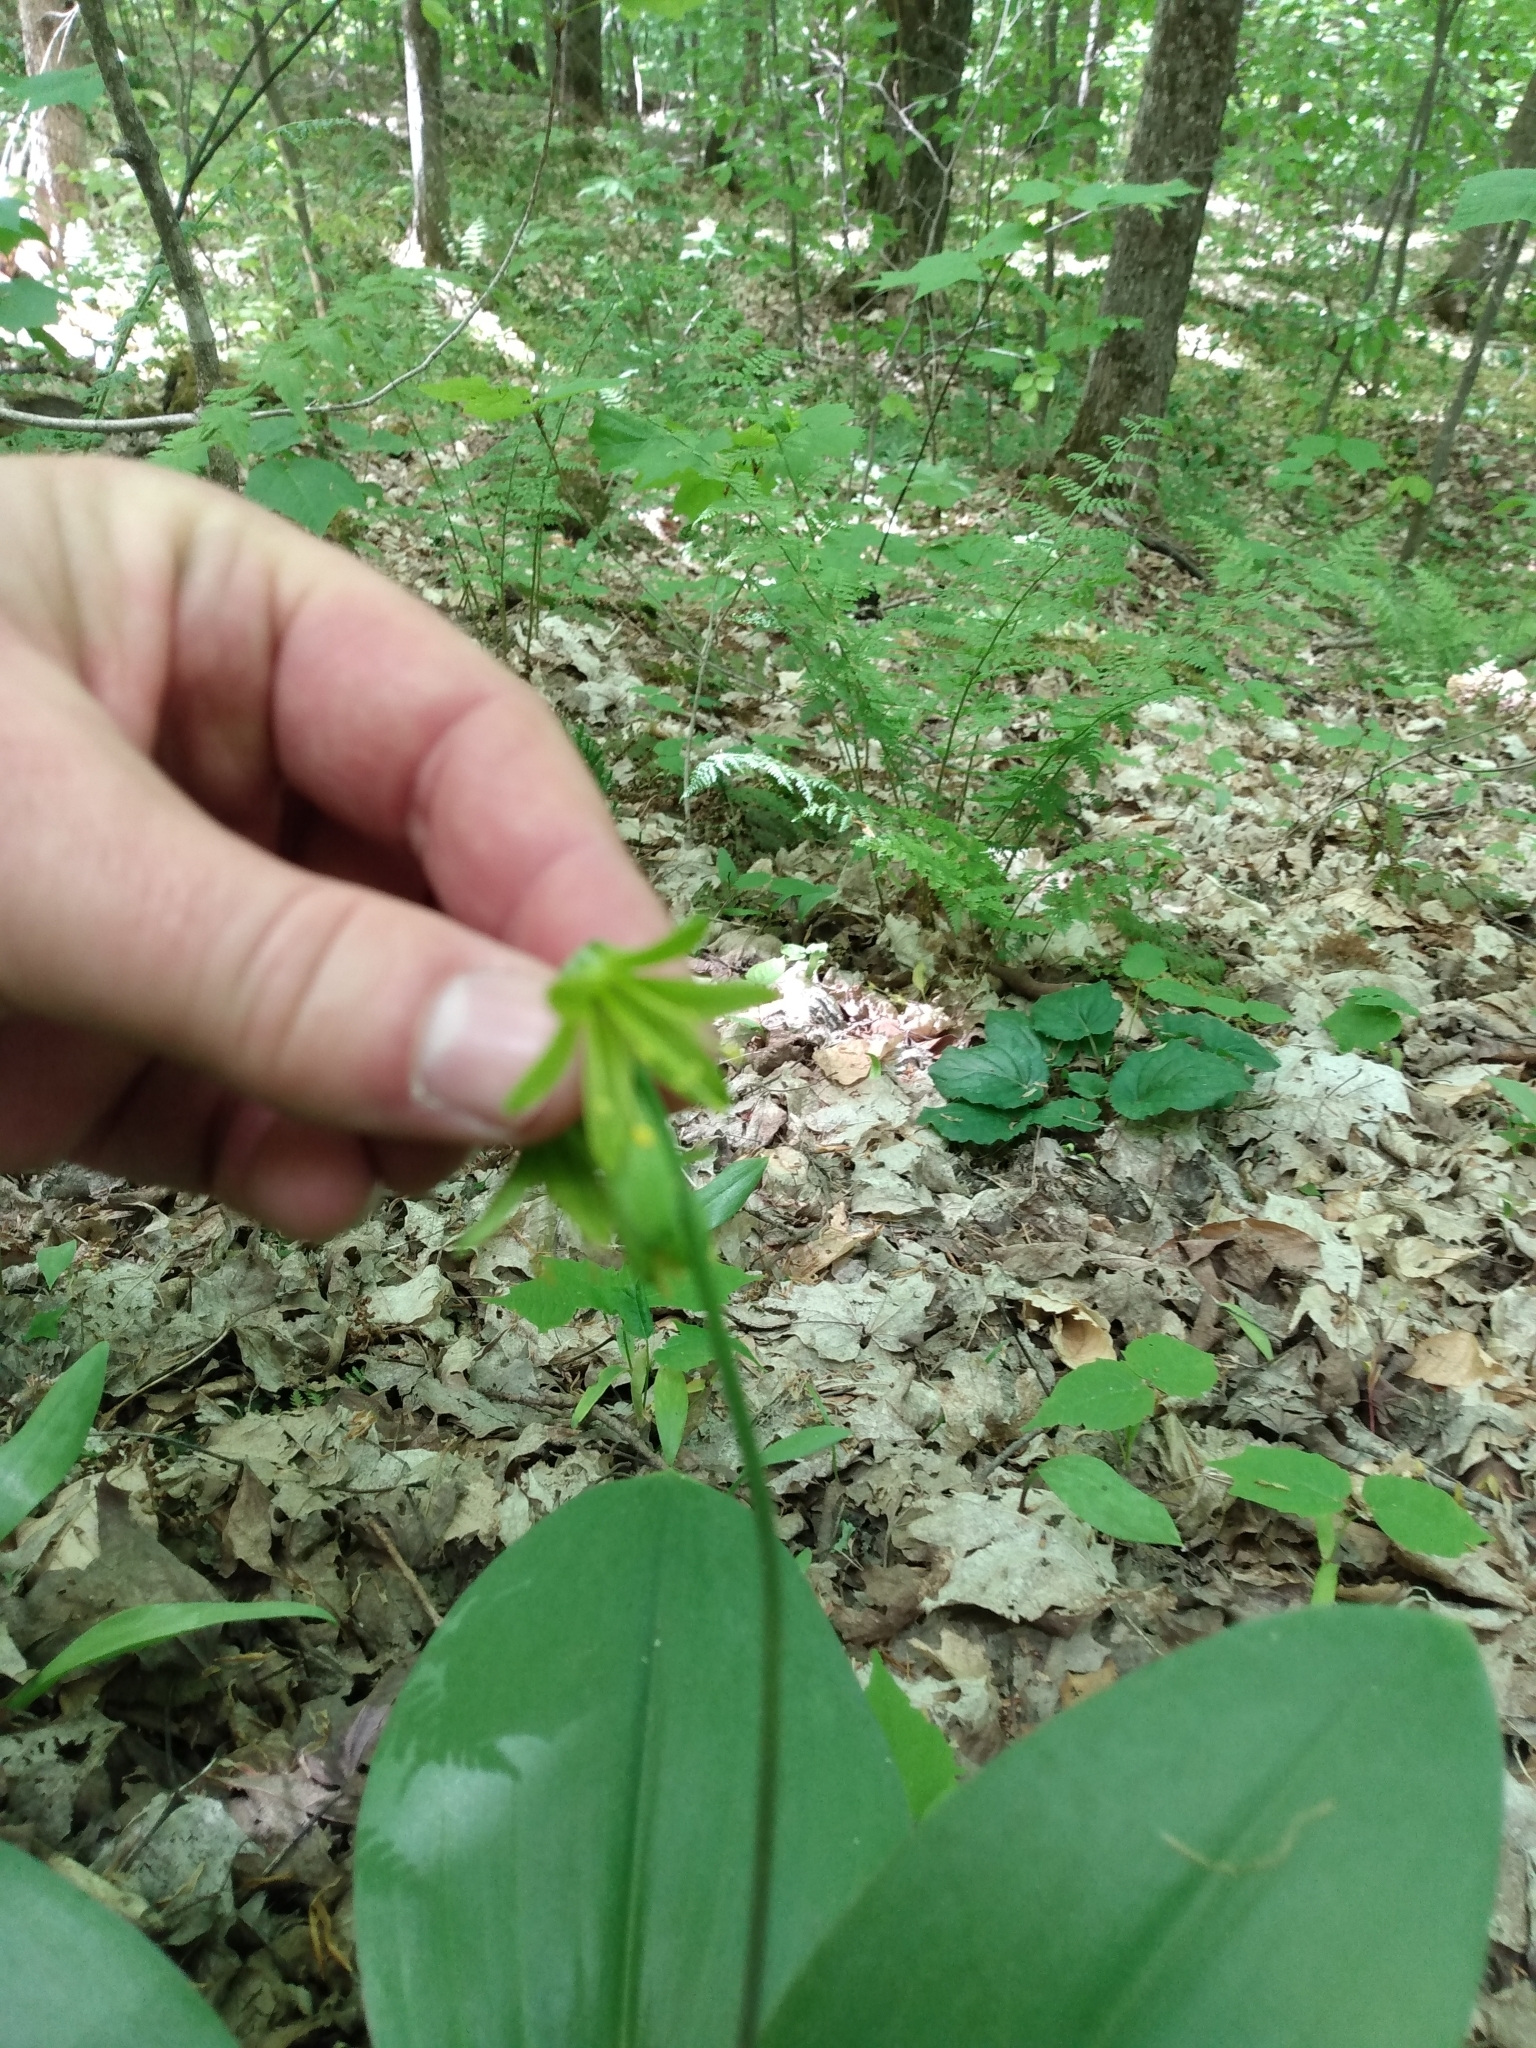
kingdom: Plantae
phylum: Tracheophyta
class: Liliopsida
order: Liliales
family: Liliaceae
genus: Clintonia
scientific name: Clintonia borealis
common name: Yellow clintonia
